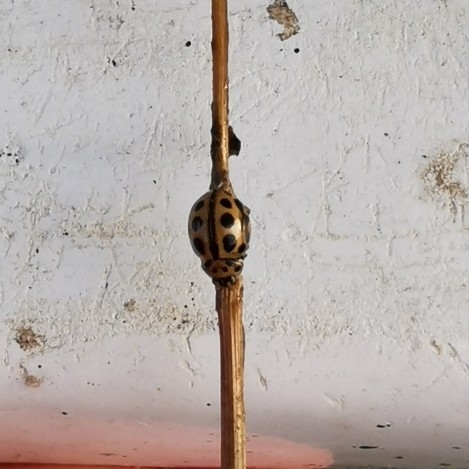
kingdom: Animalia
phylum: Arthropoda
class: Insecta
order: Coleoptera
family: Coccinellidae
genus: Tytthaspis
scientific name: Tytthaspis sedecimpunctata
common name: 16-spot ladybird
